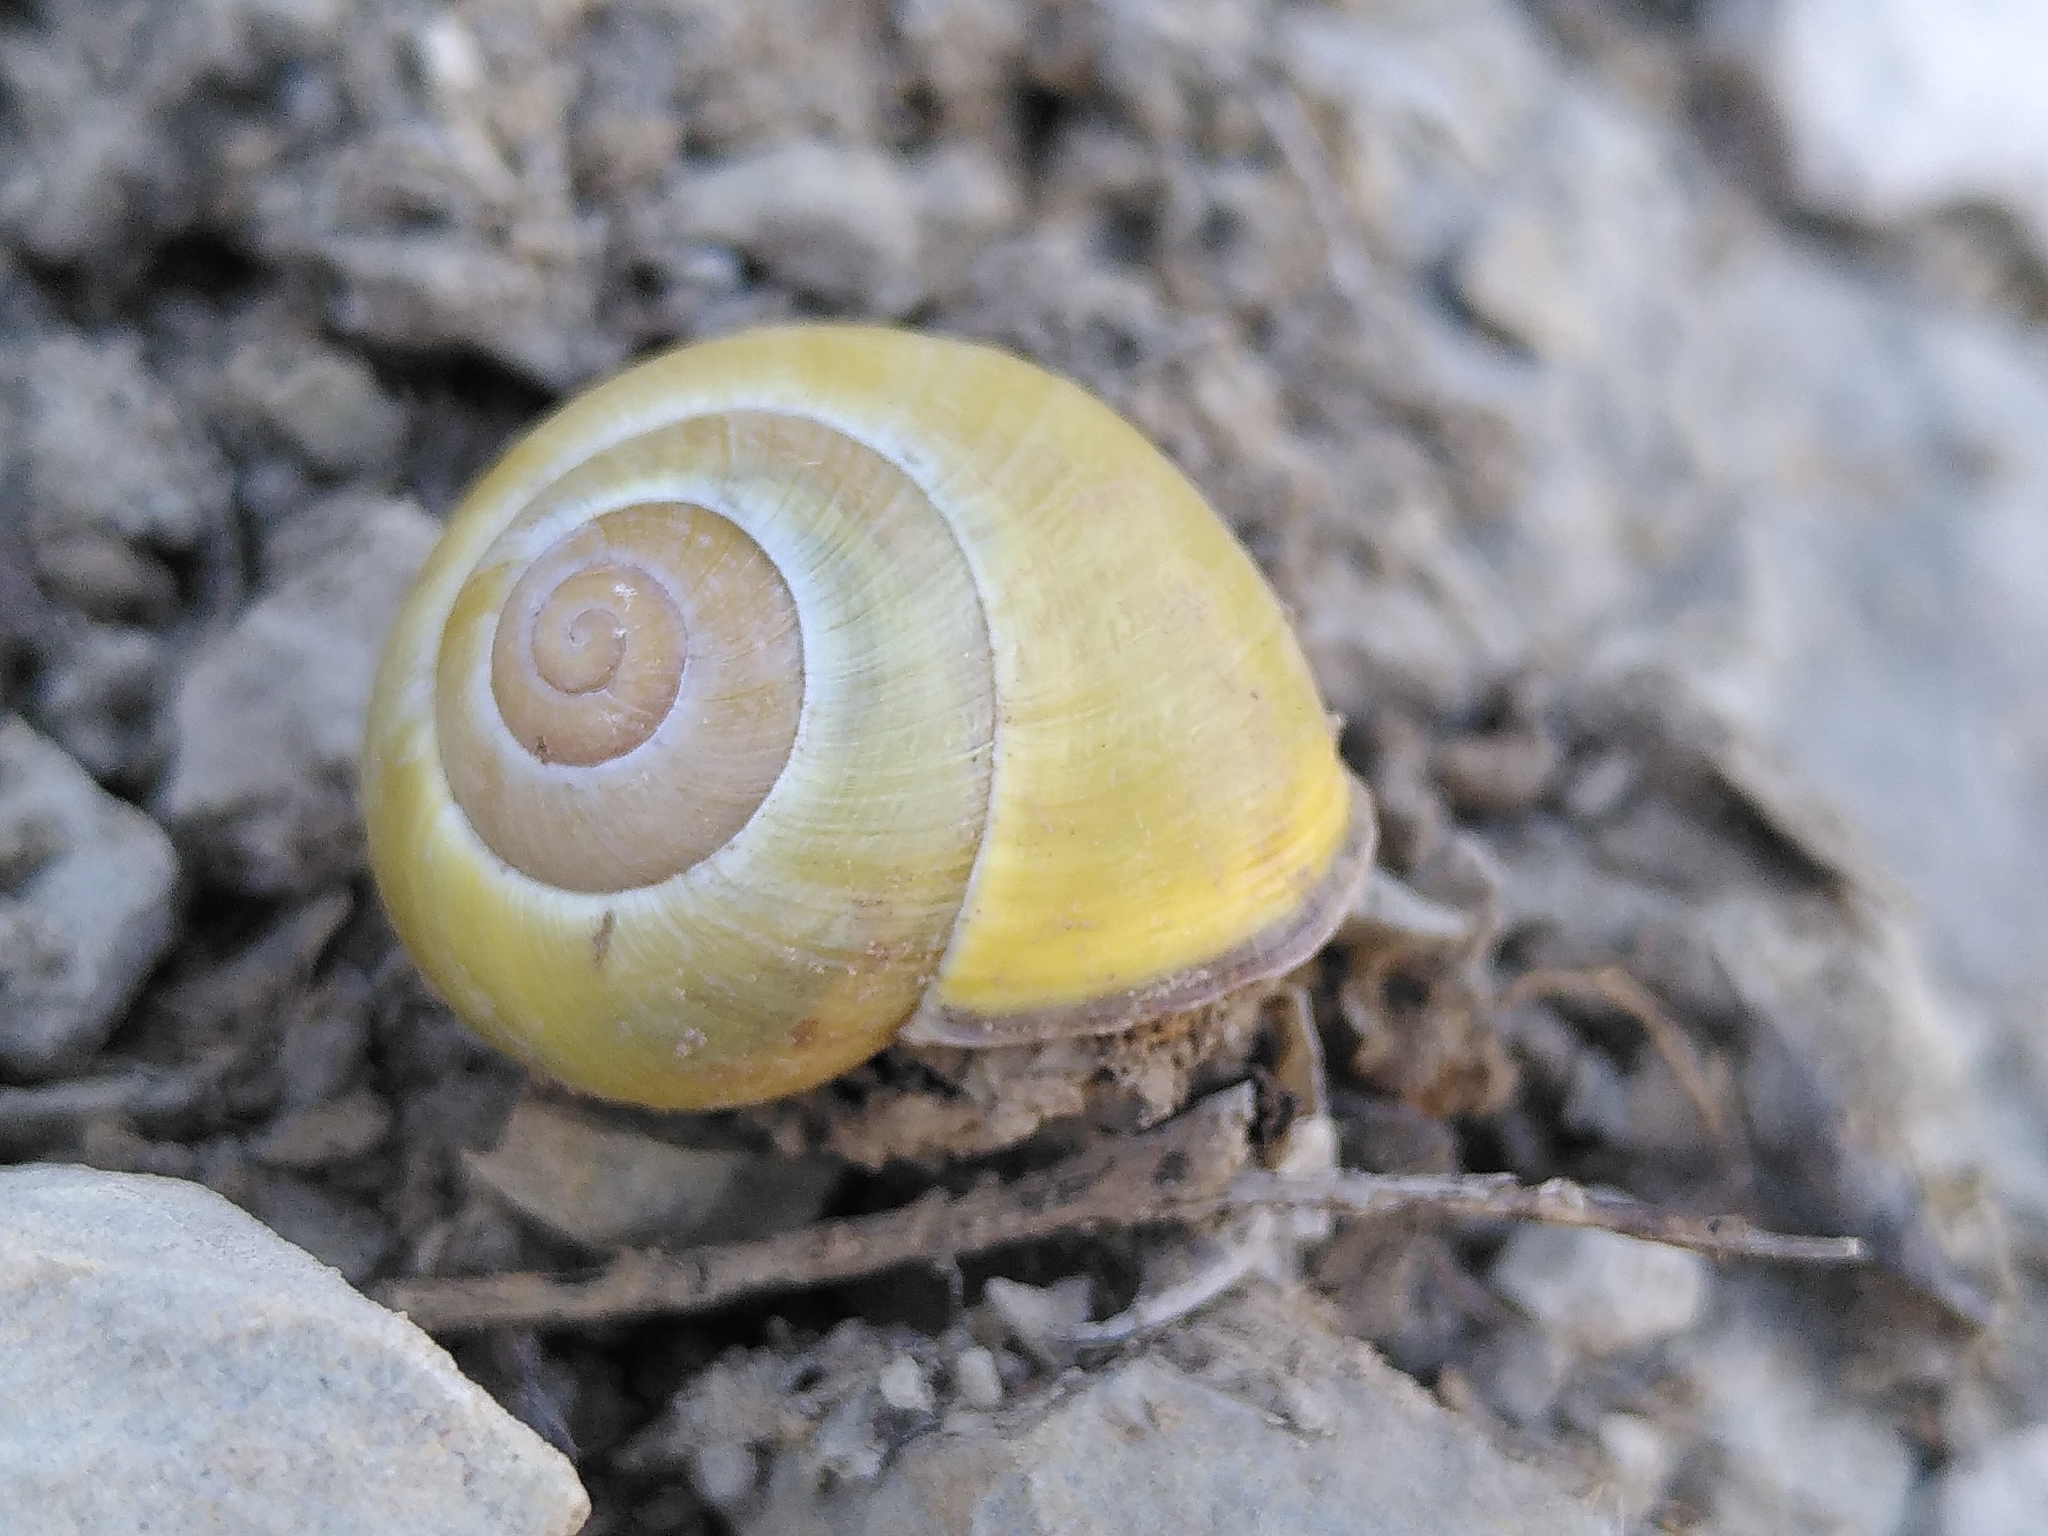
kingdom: Animalia
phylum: Mollusca
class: Gastropoda
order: Stylommatophora
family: Helicidae
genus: Cepaea
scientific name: Cepaea nemoralis
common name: Grovesnail
